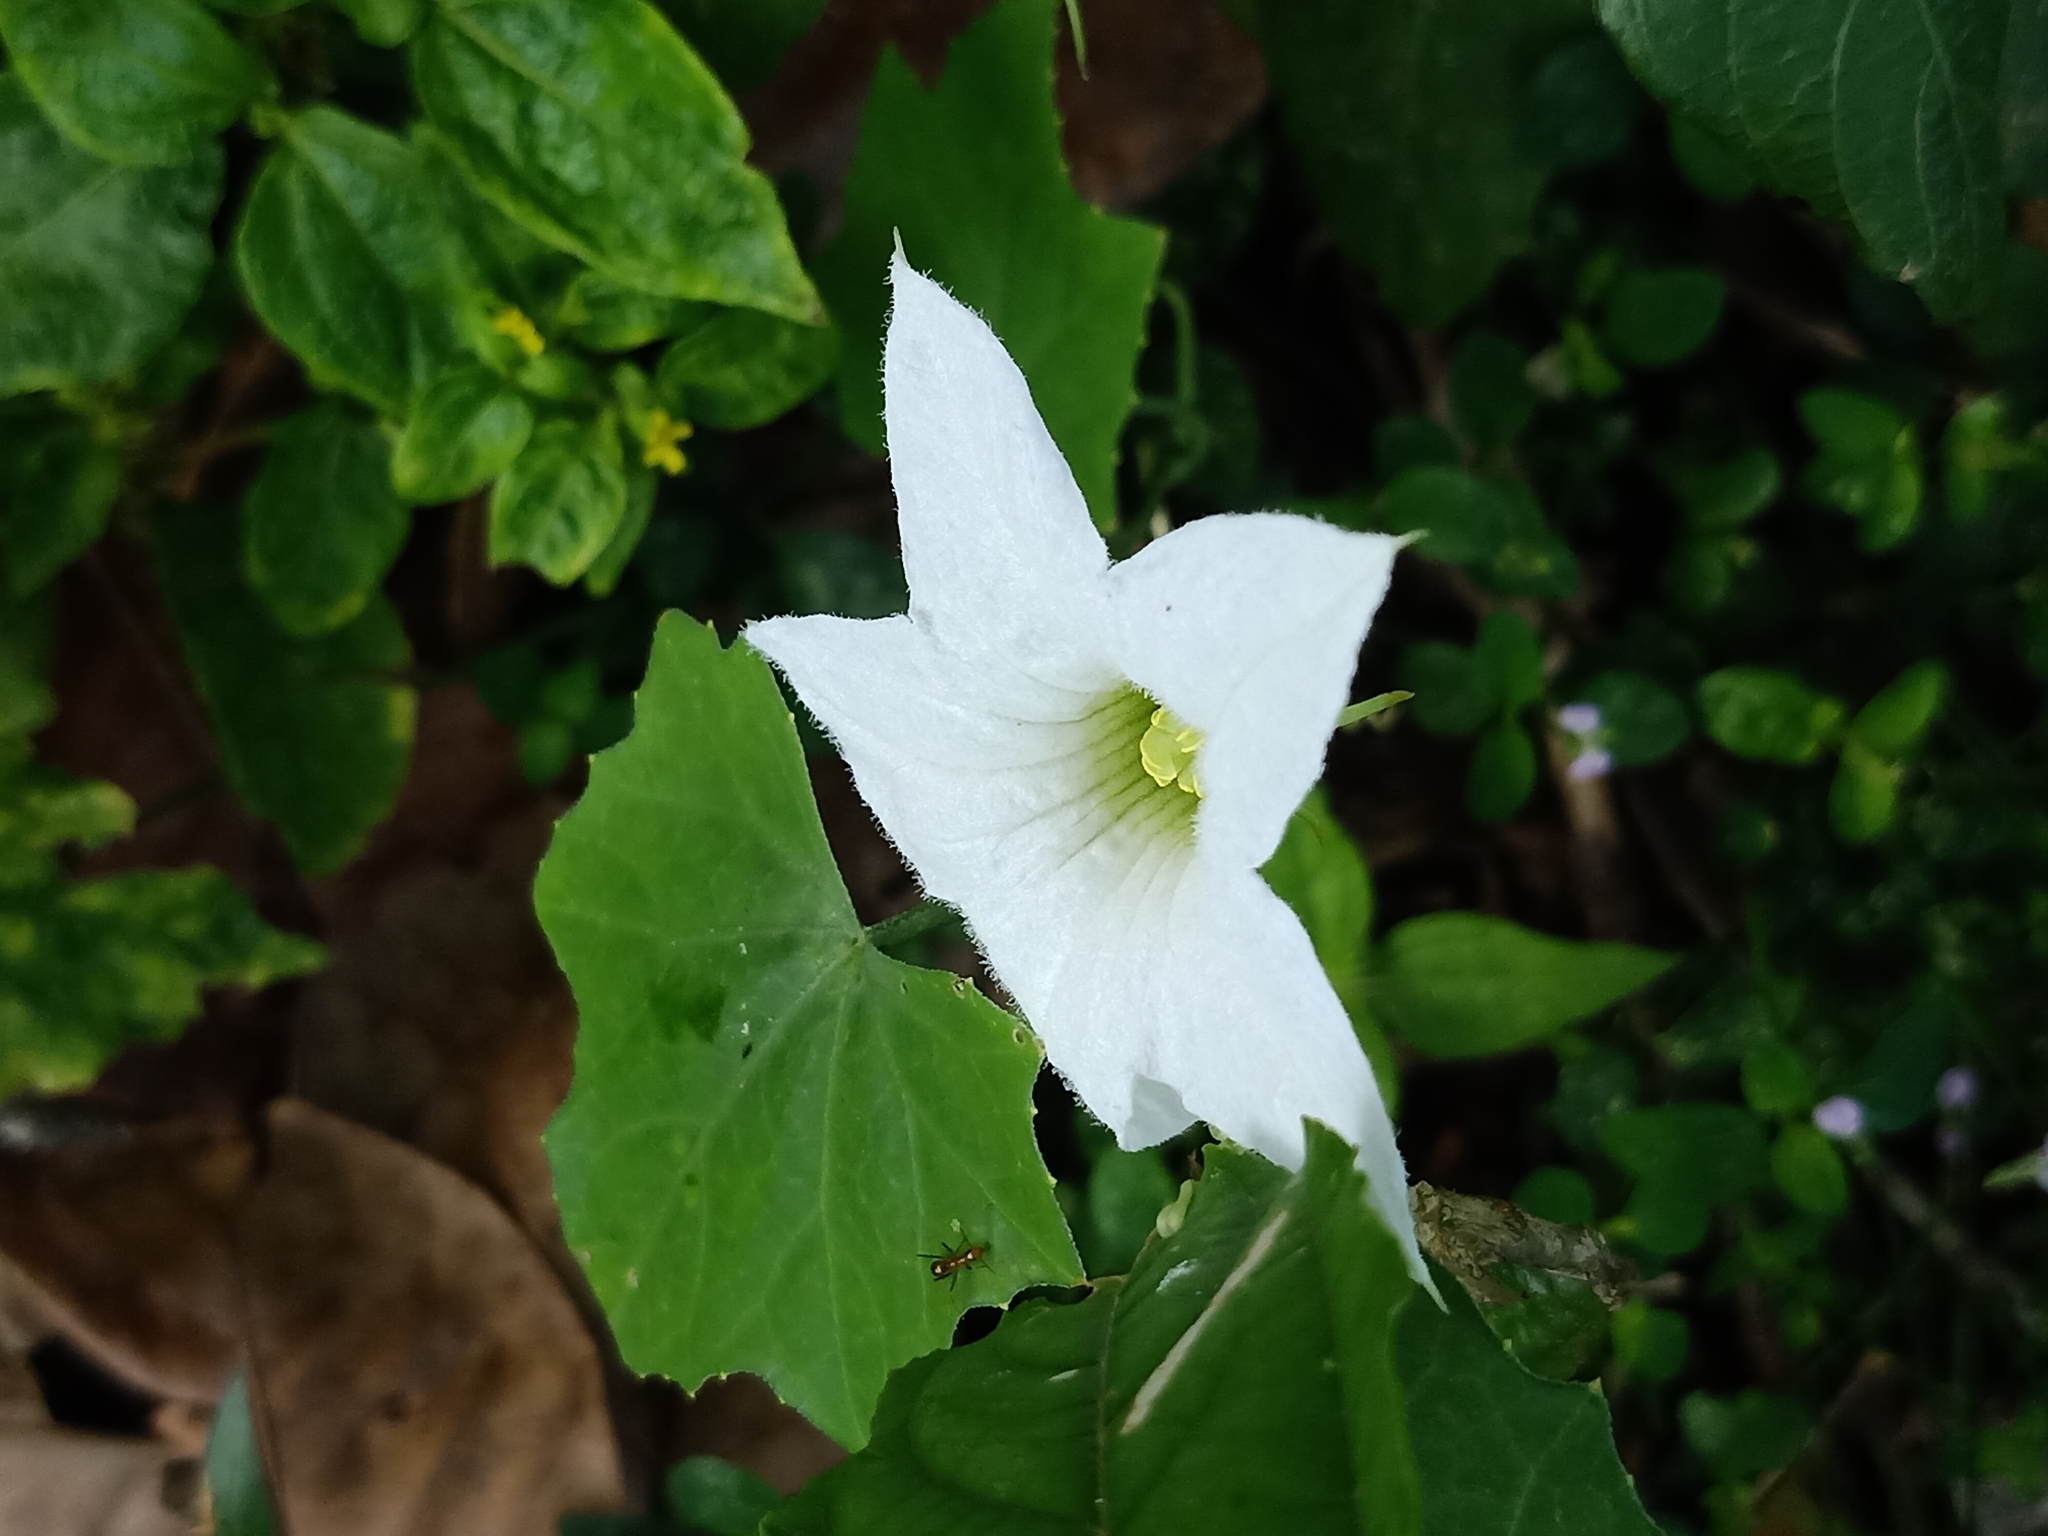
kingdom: Plantae
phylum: Tracheophyta
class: Magnoliopsida
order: Cucurbitales
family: Cucurbitaceae
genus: Coccinia
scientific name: Coccinia grandis
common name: Ivy gourd
